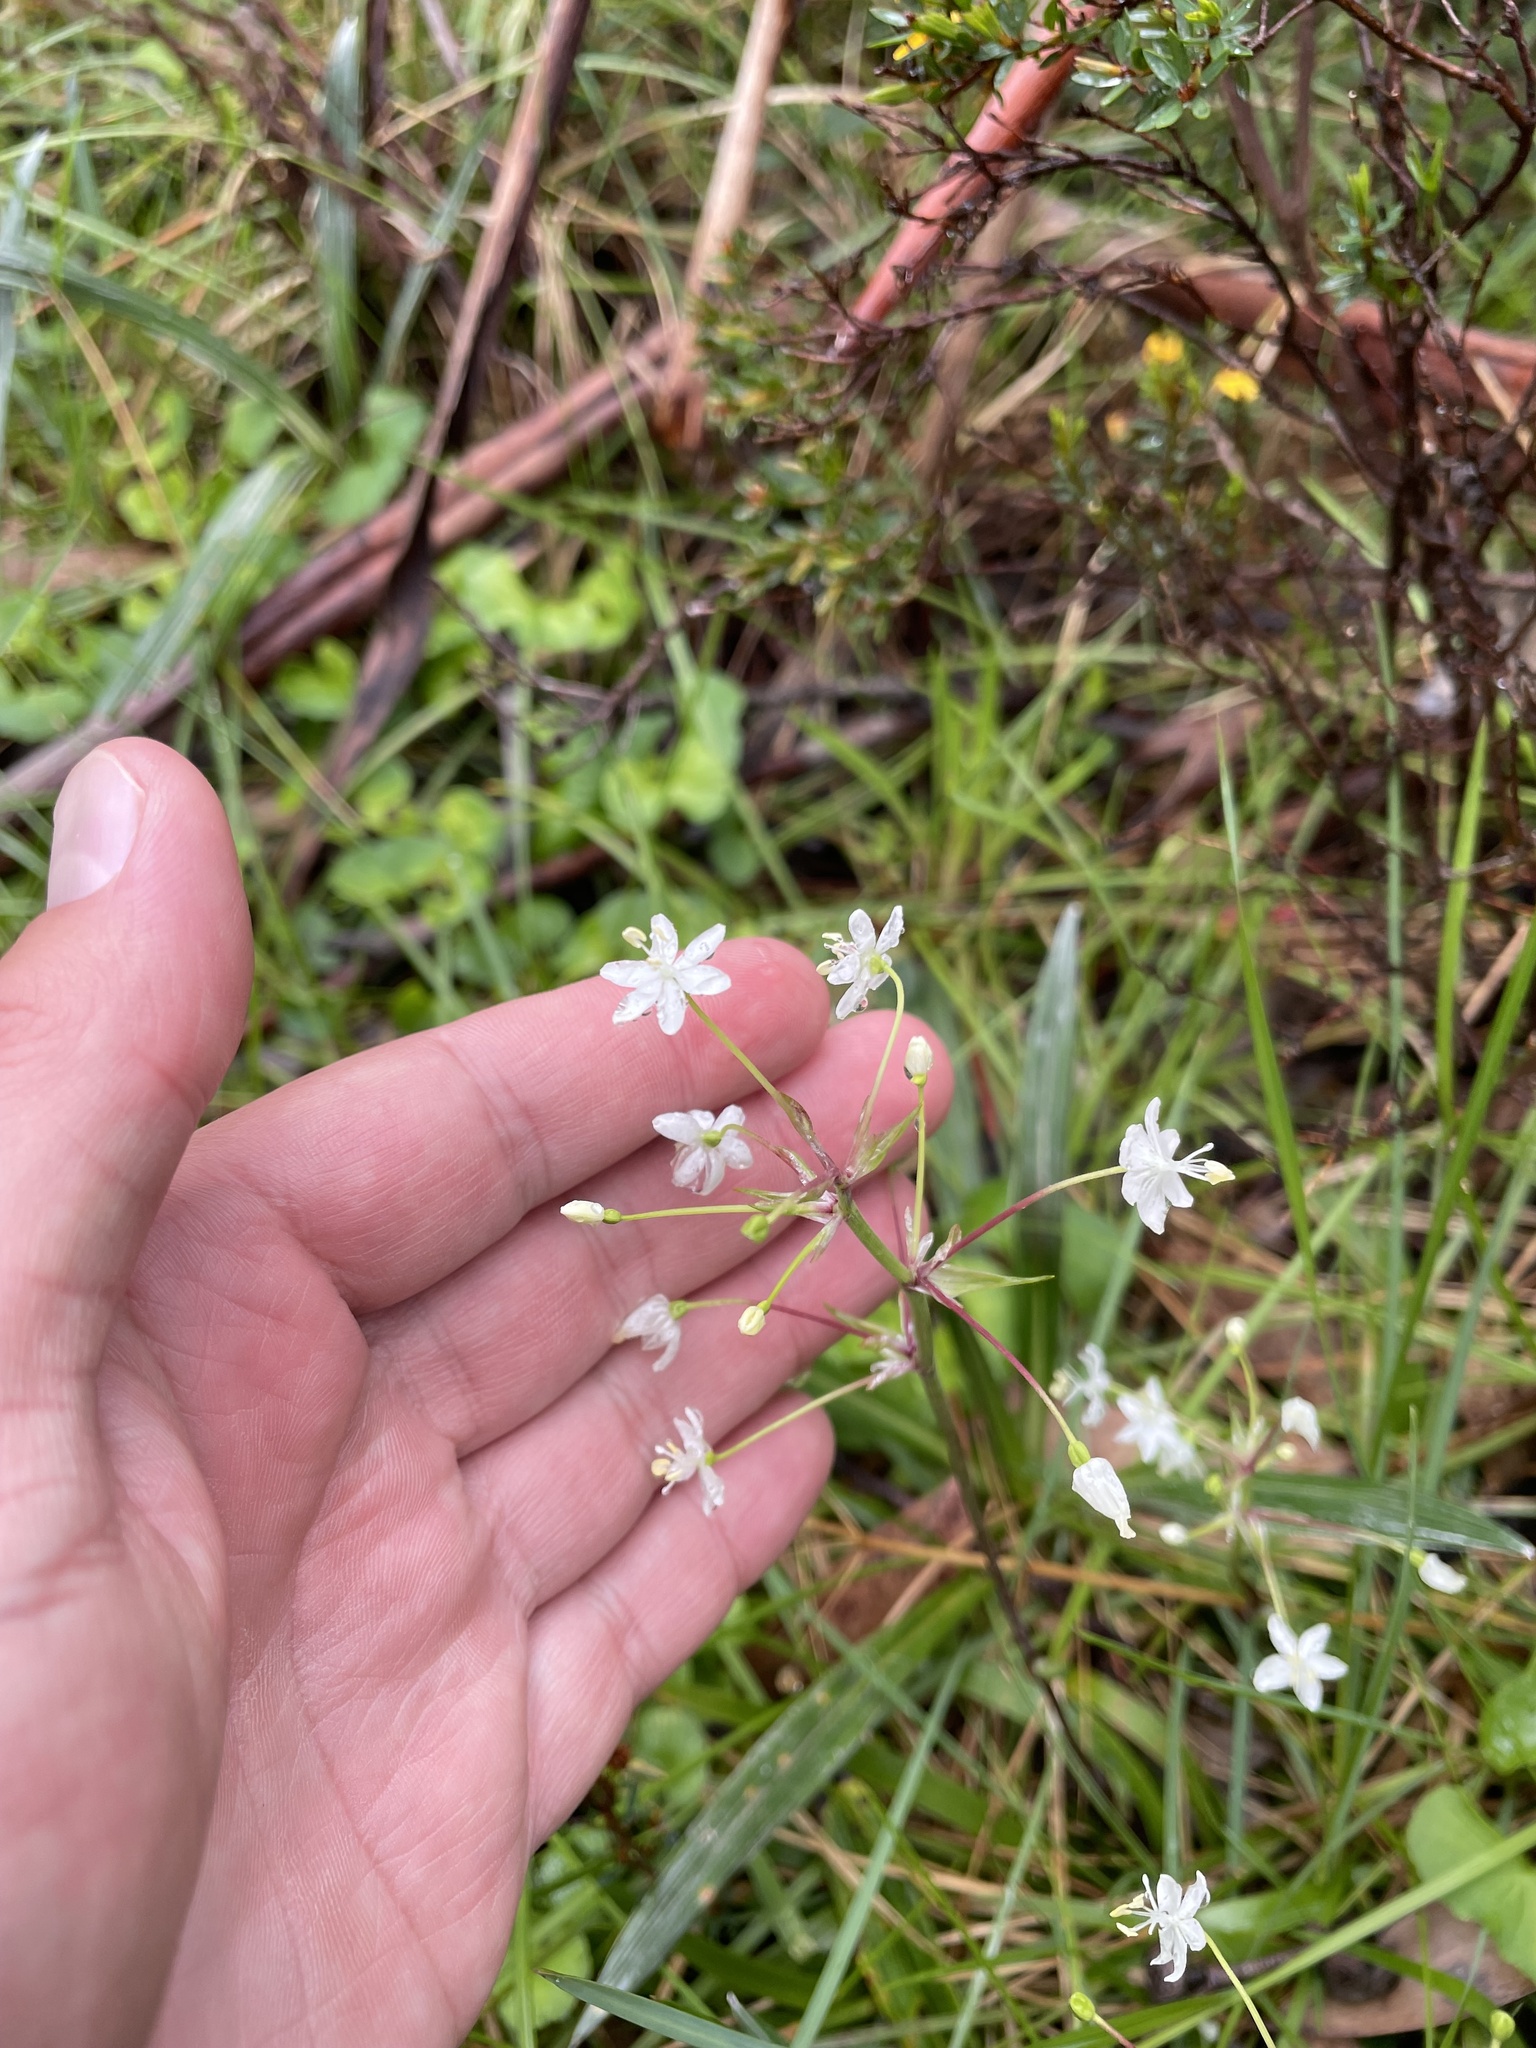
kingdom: Plantae
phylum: Tracheophyta
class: Liliopsida
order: Asparagales
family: Iridaceae
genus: Libertia
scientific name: Libertia pulchella
